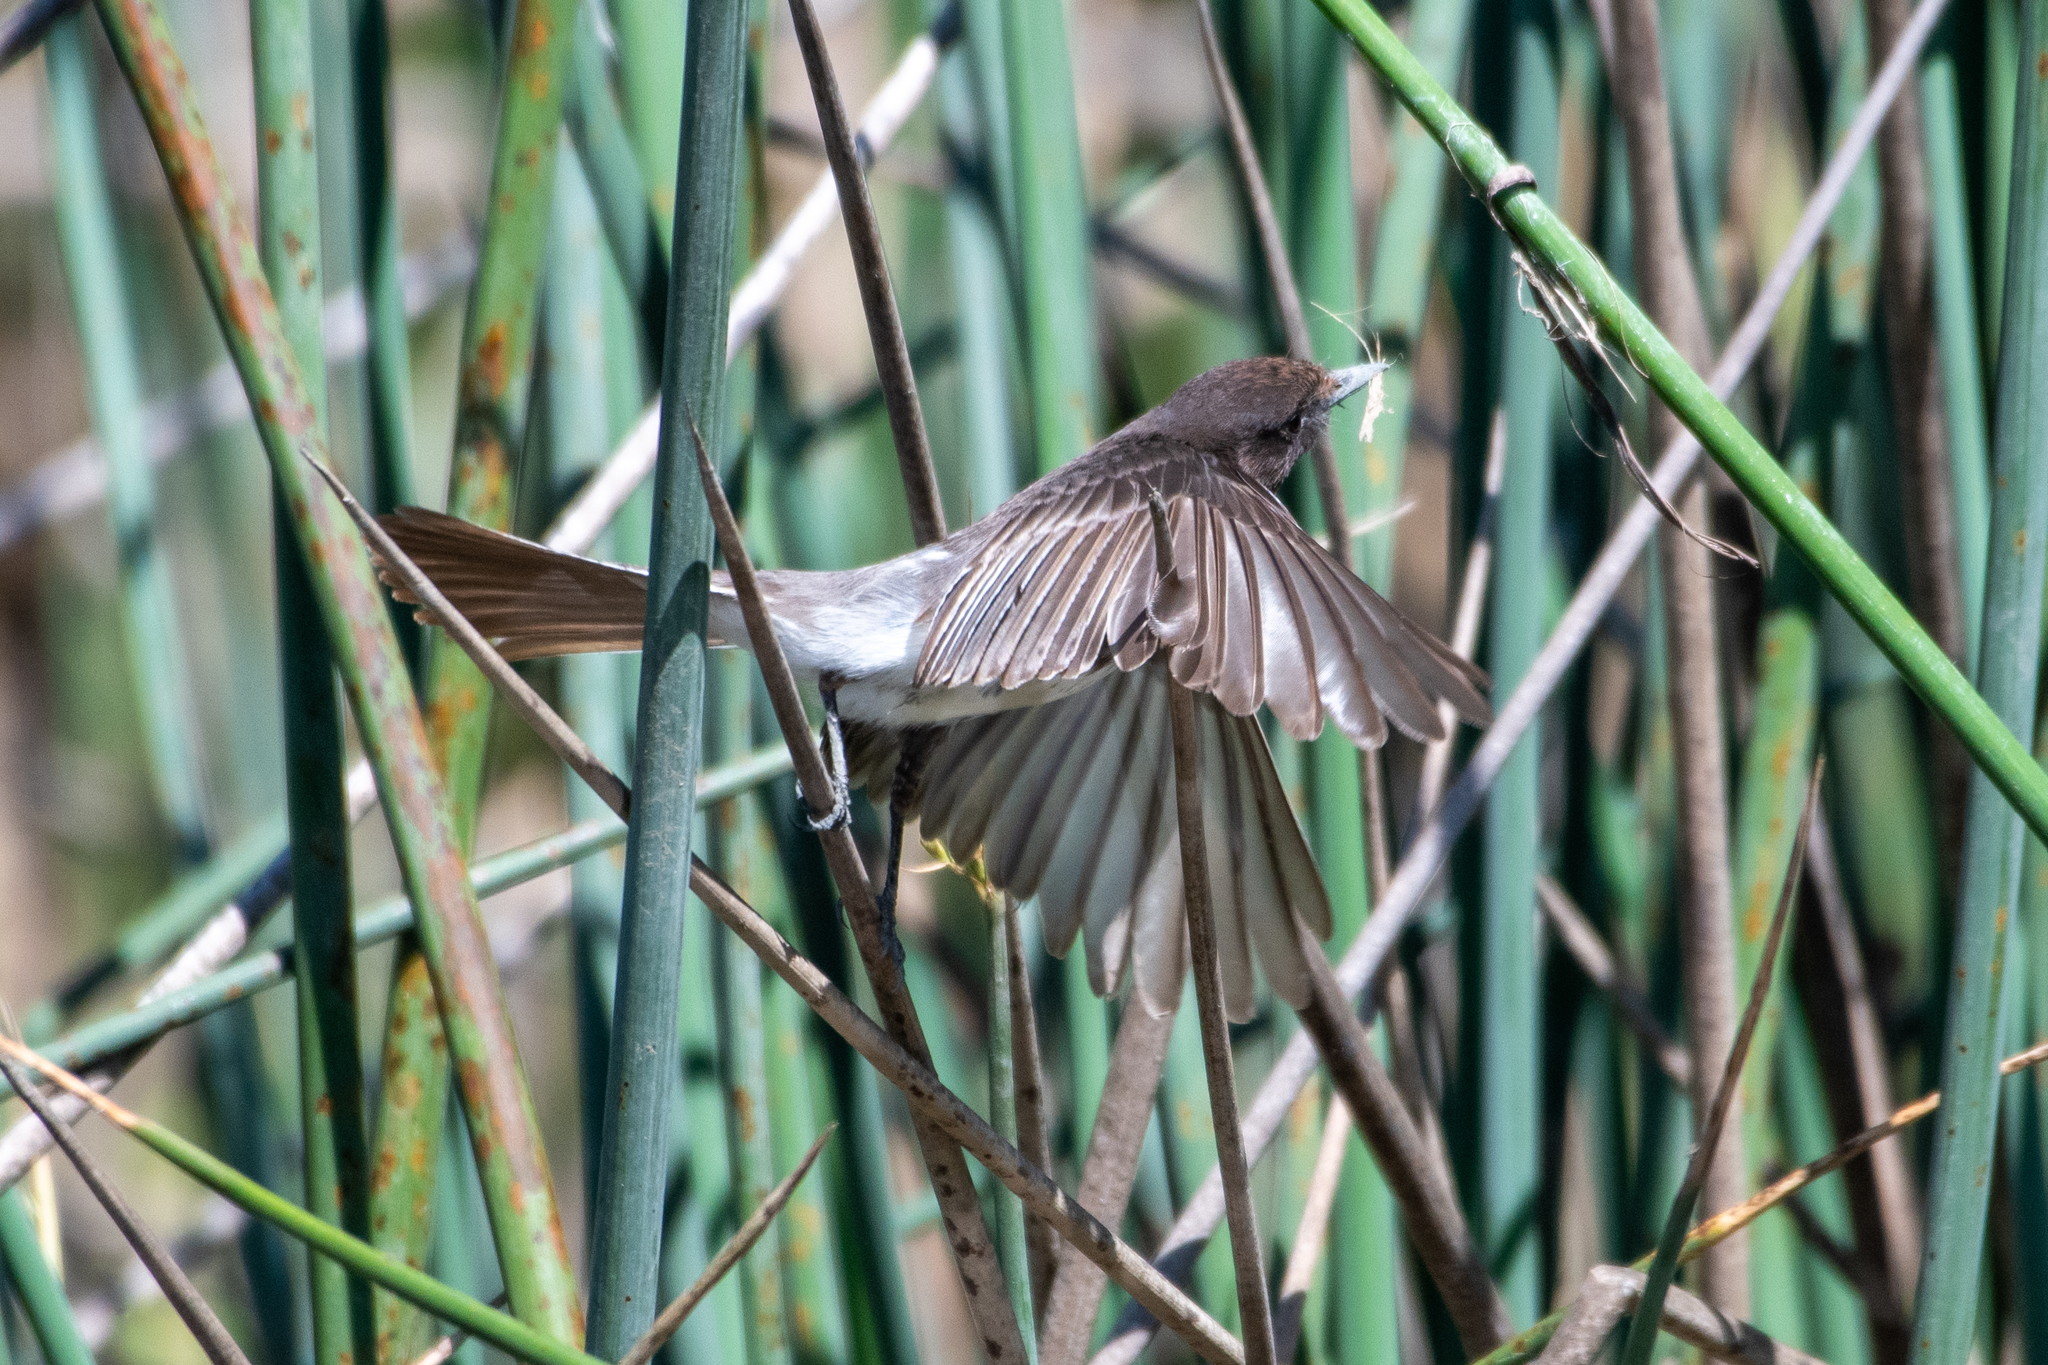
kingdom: Animalia
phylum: Chordata
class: Aves
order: Passeriformes
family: Tyrannidae
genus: Sayornis
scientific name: Sayornis nigricans
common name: Black phoebe
